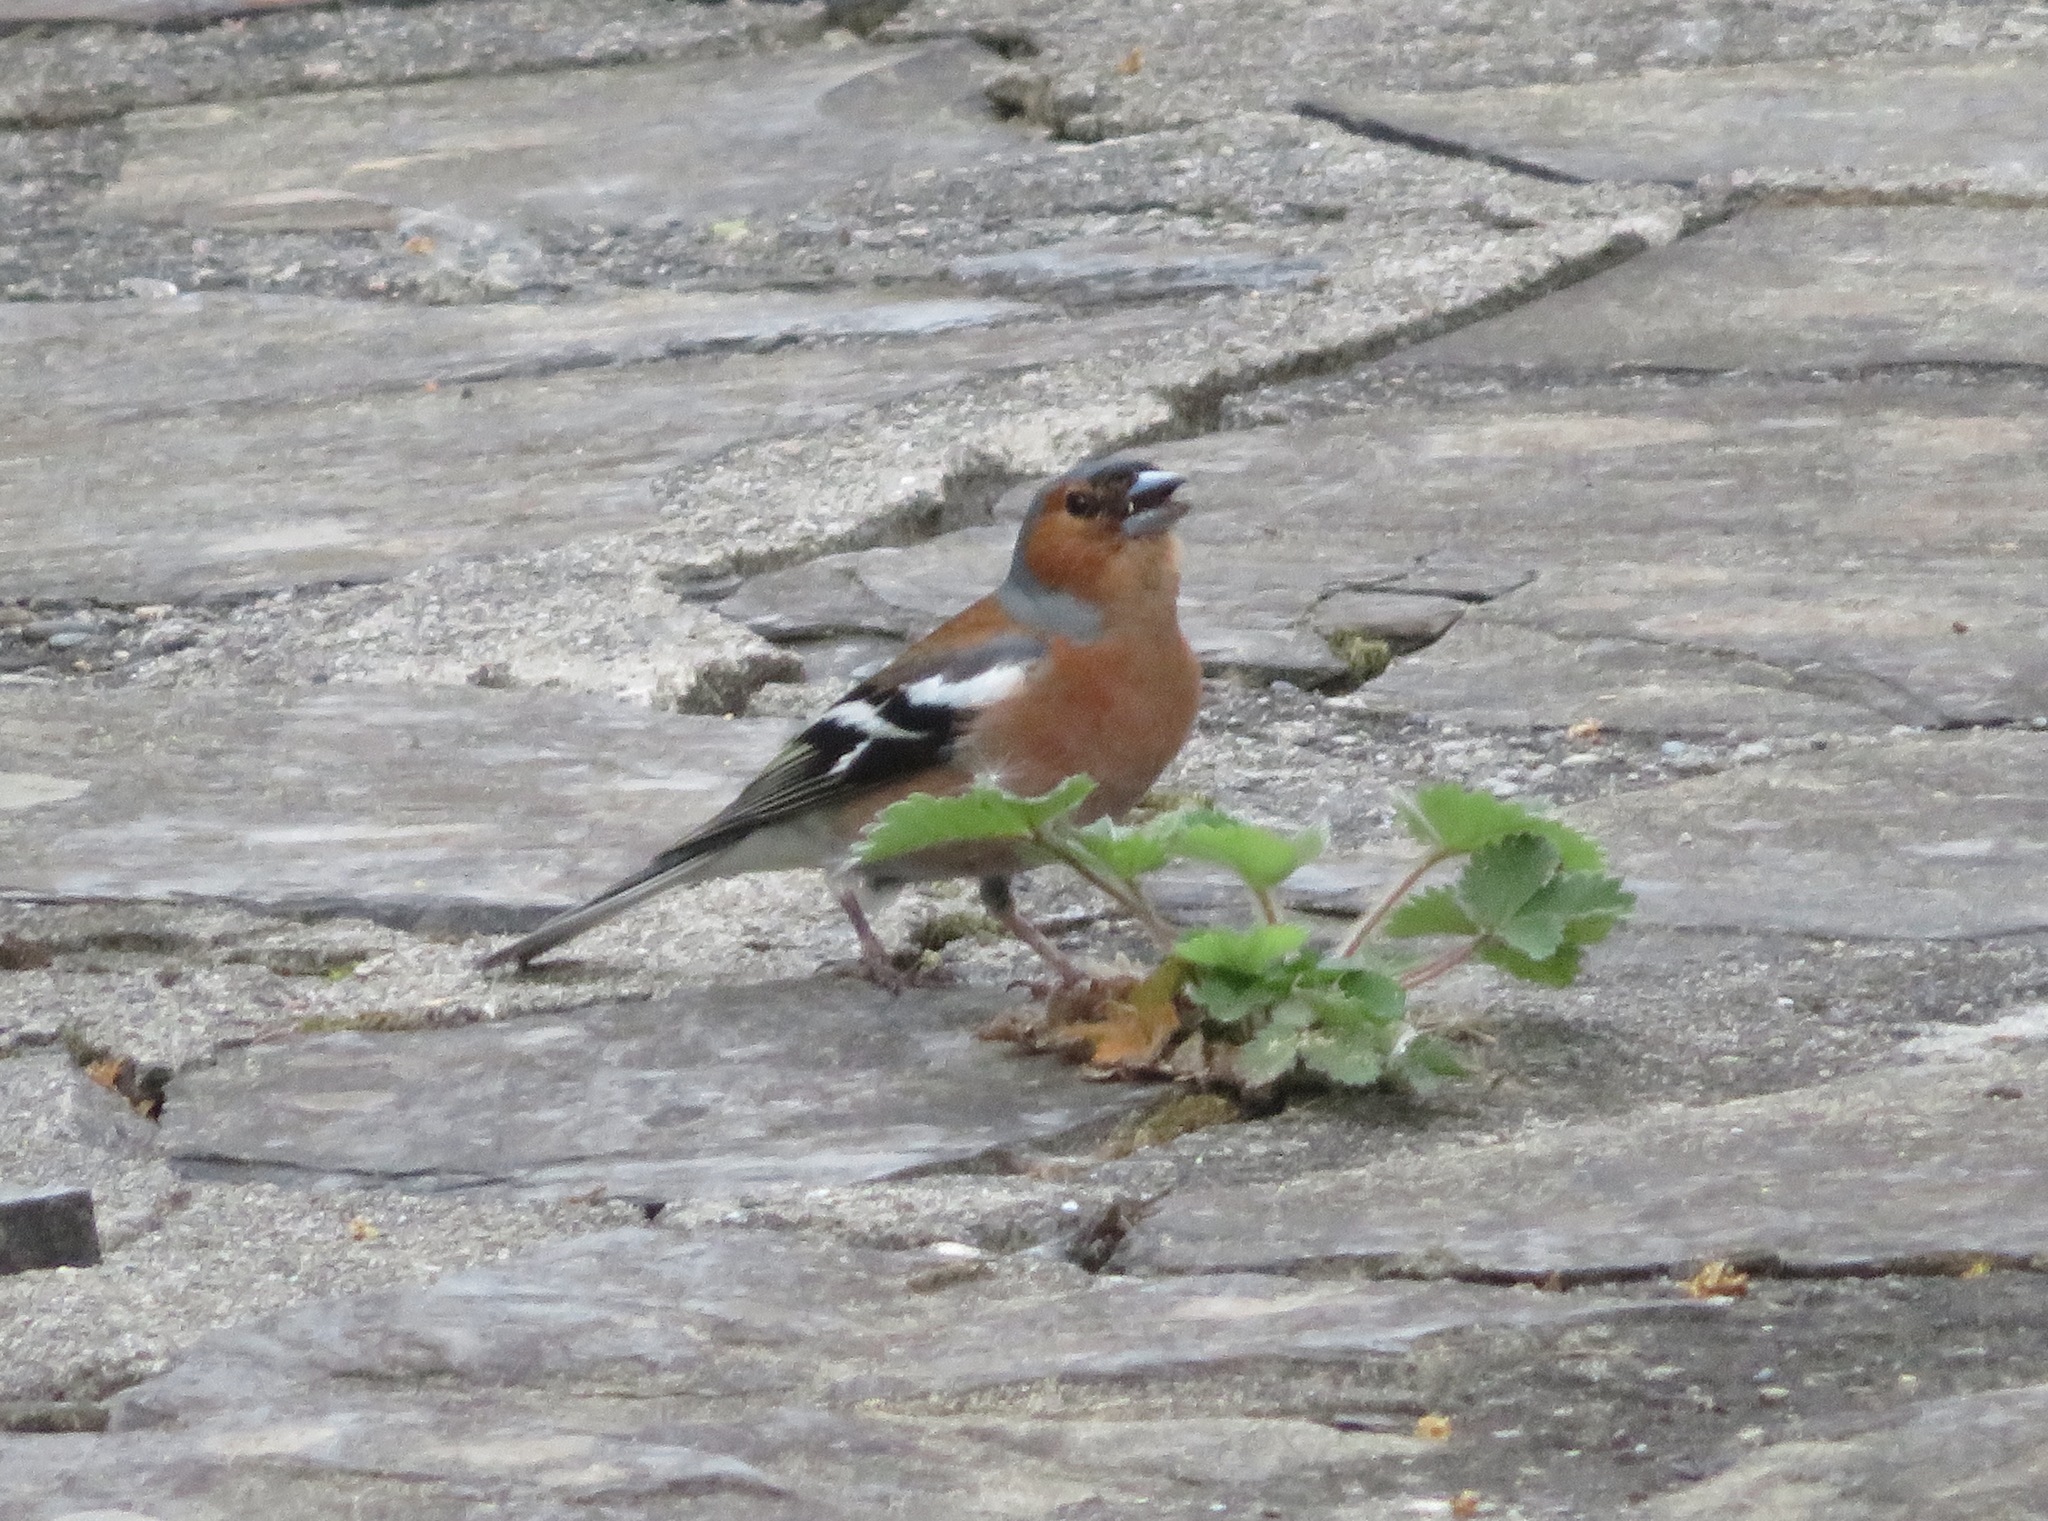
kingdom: Animalia
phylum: Chordata
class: Aves
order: Passeriformes
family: Fringillidae
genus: Fringilla
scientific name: Fringilla coelebs
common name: Common chaffinch
